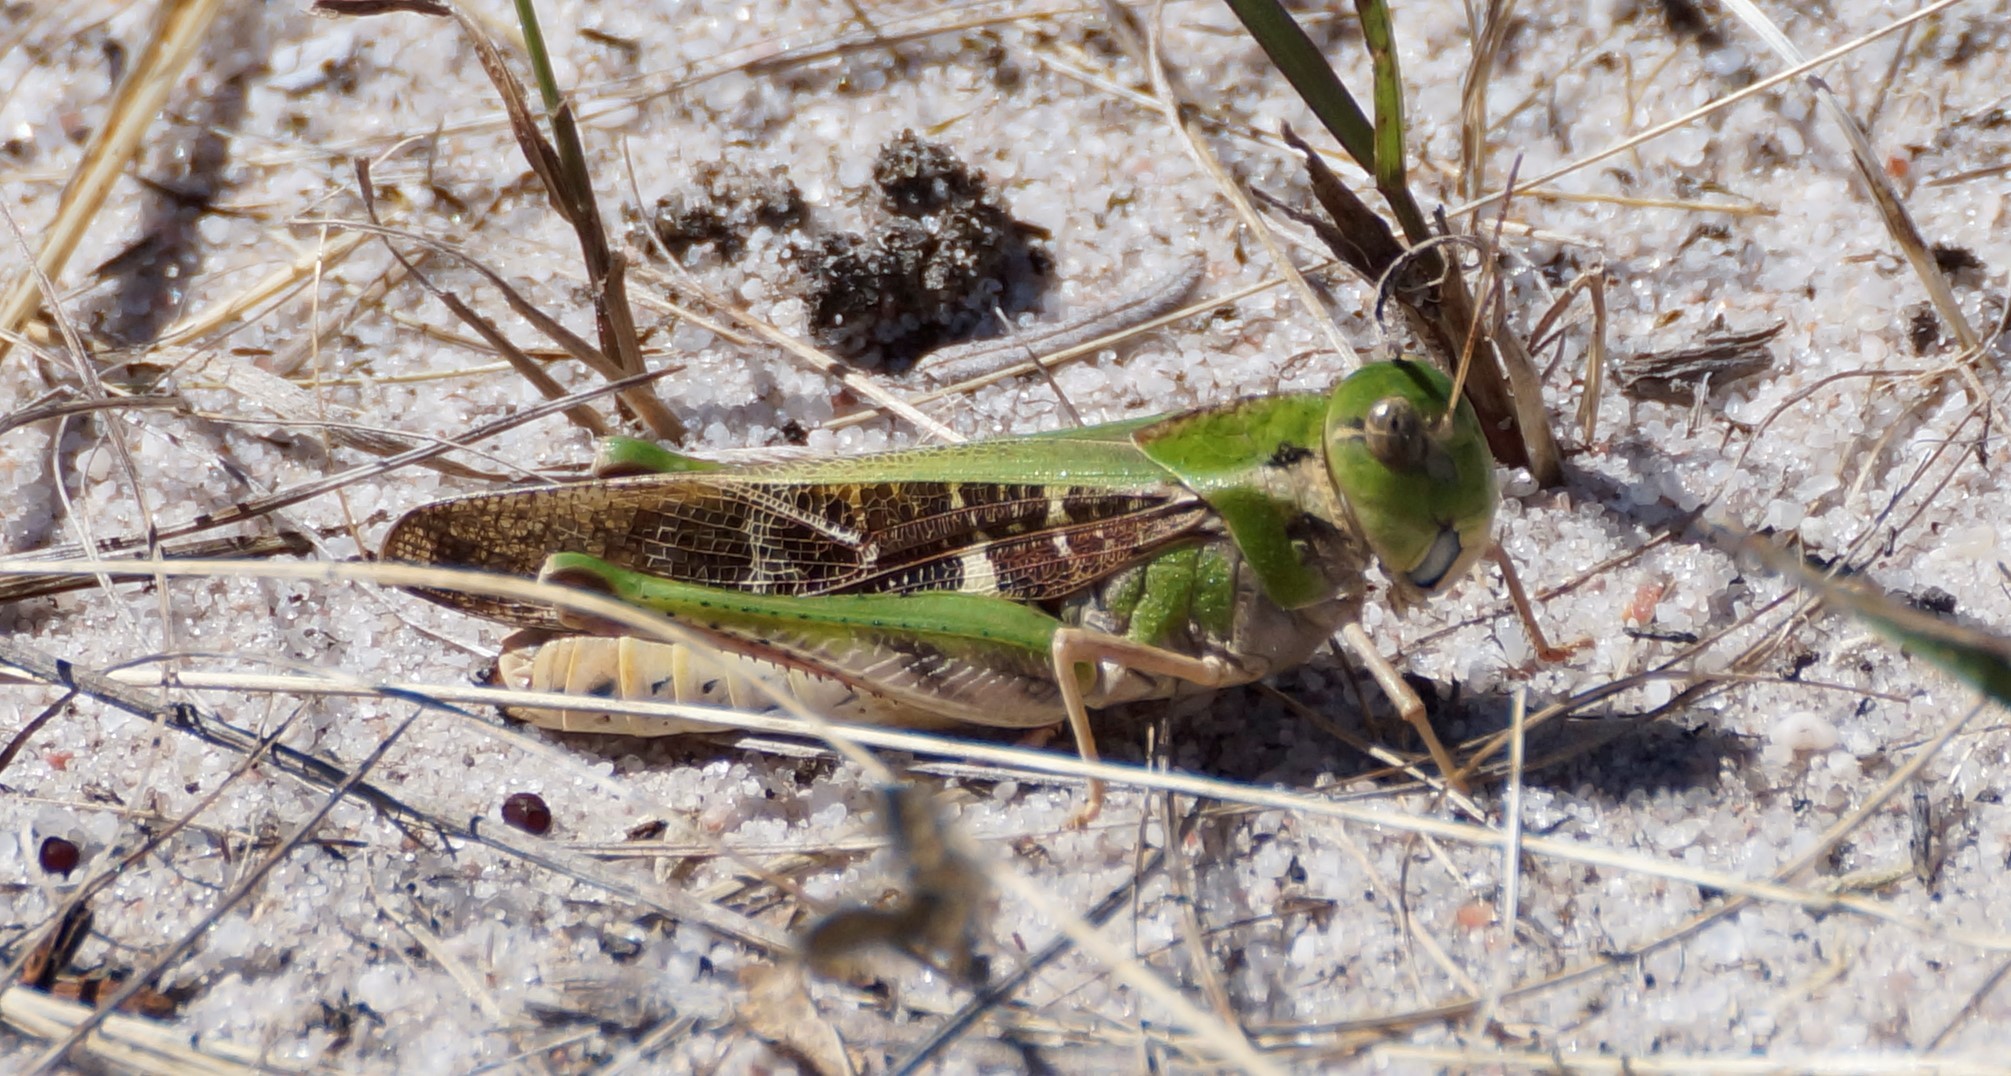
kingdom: Animalia
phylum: Arthropoda
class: Insecta
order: Orthoptera
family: Acrididae
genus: Gastrimargus
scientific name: Gastrimargus musicus
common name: Yellow-winged locust
